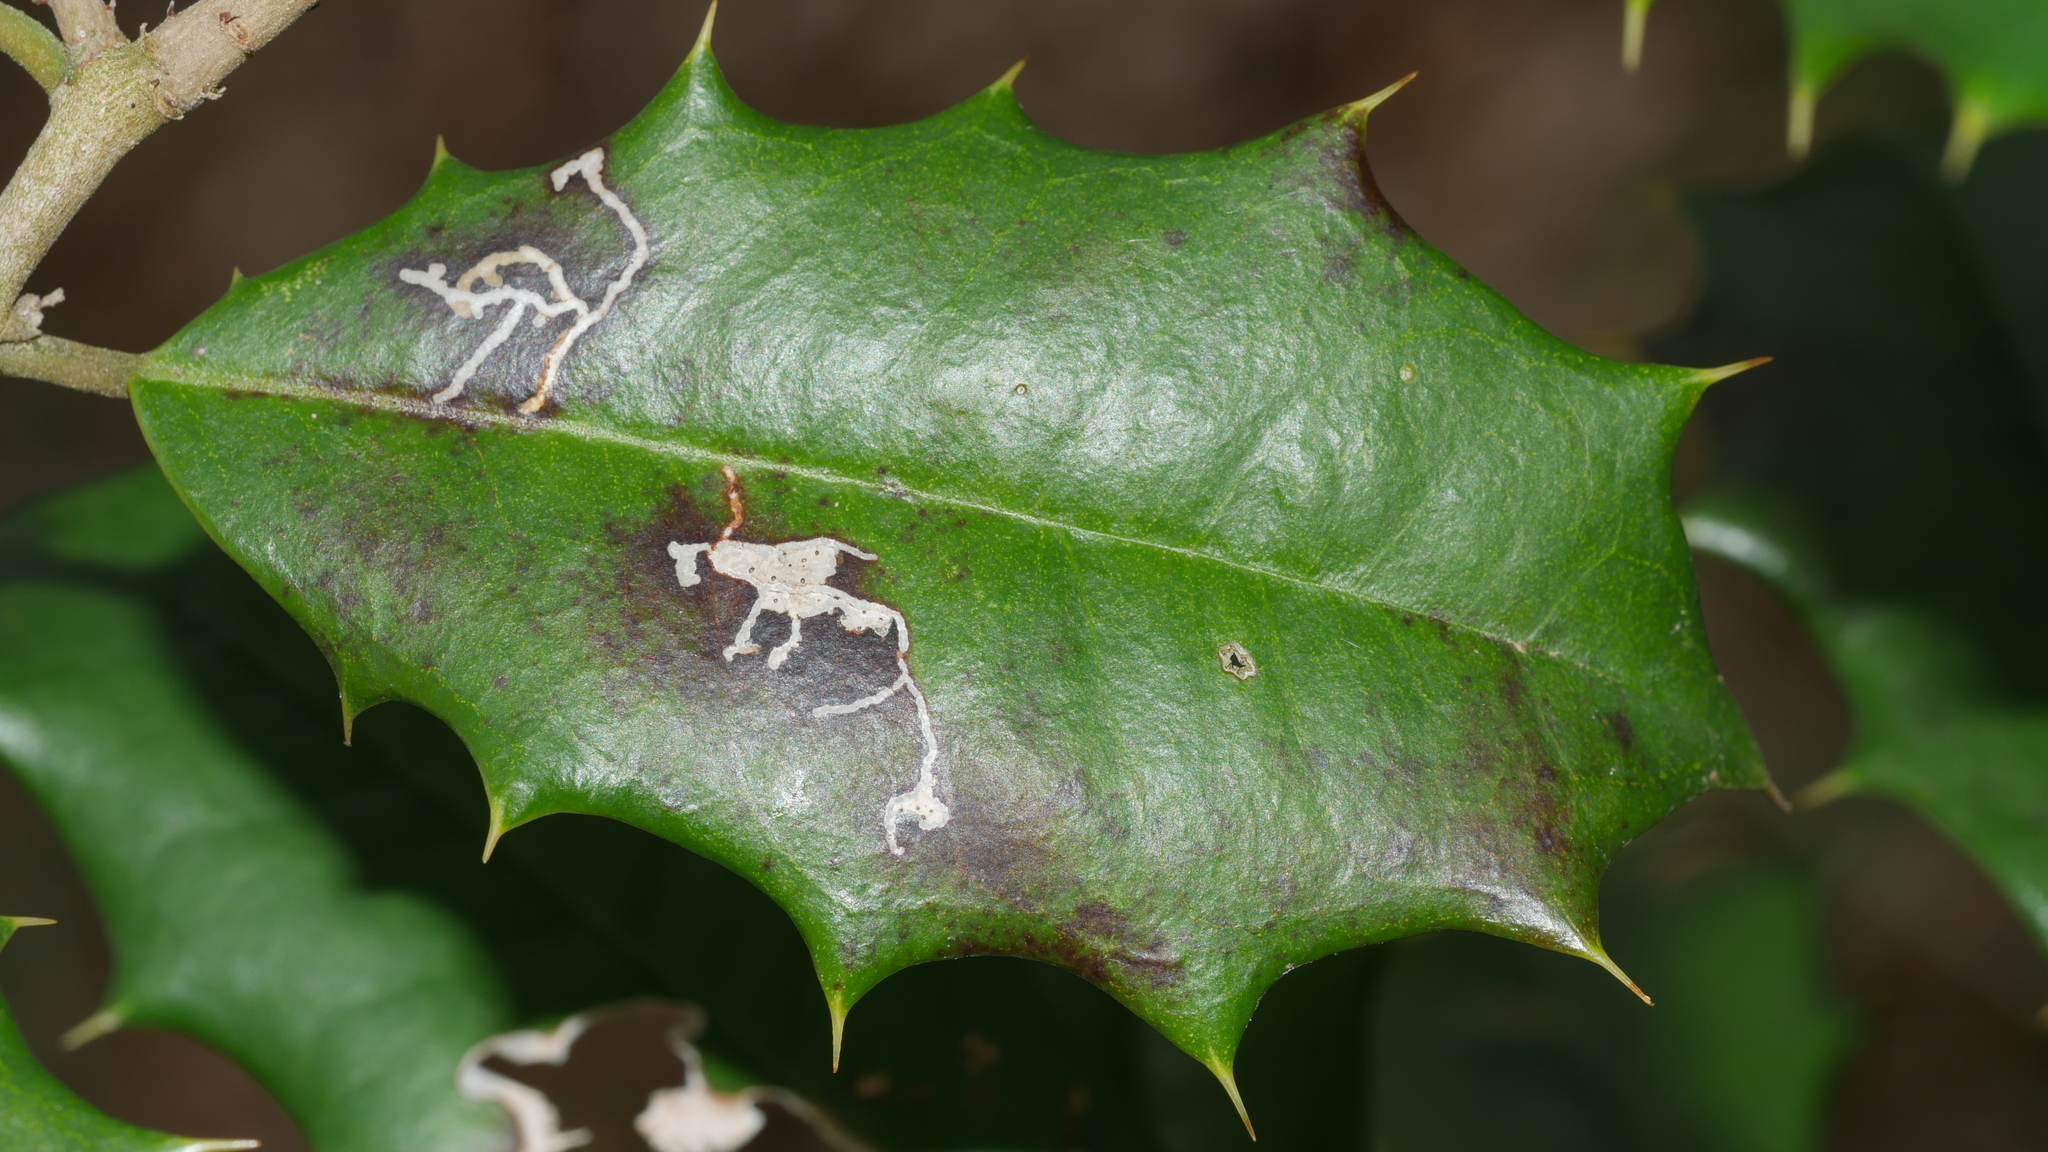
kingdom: Animalia
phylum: Arthropoda
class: Insecta
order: Lepidoptera
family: Tortricidae
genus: Rhopobota
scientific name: Rhopobota
